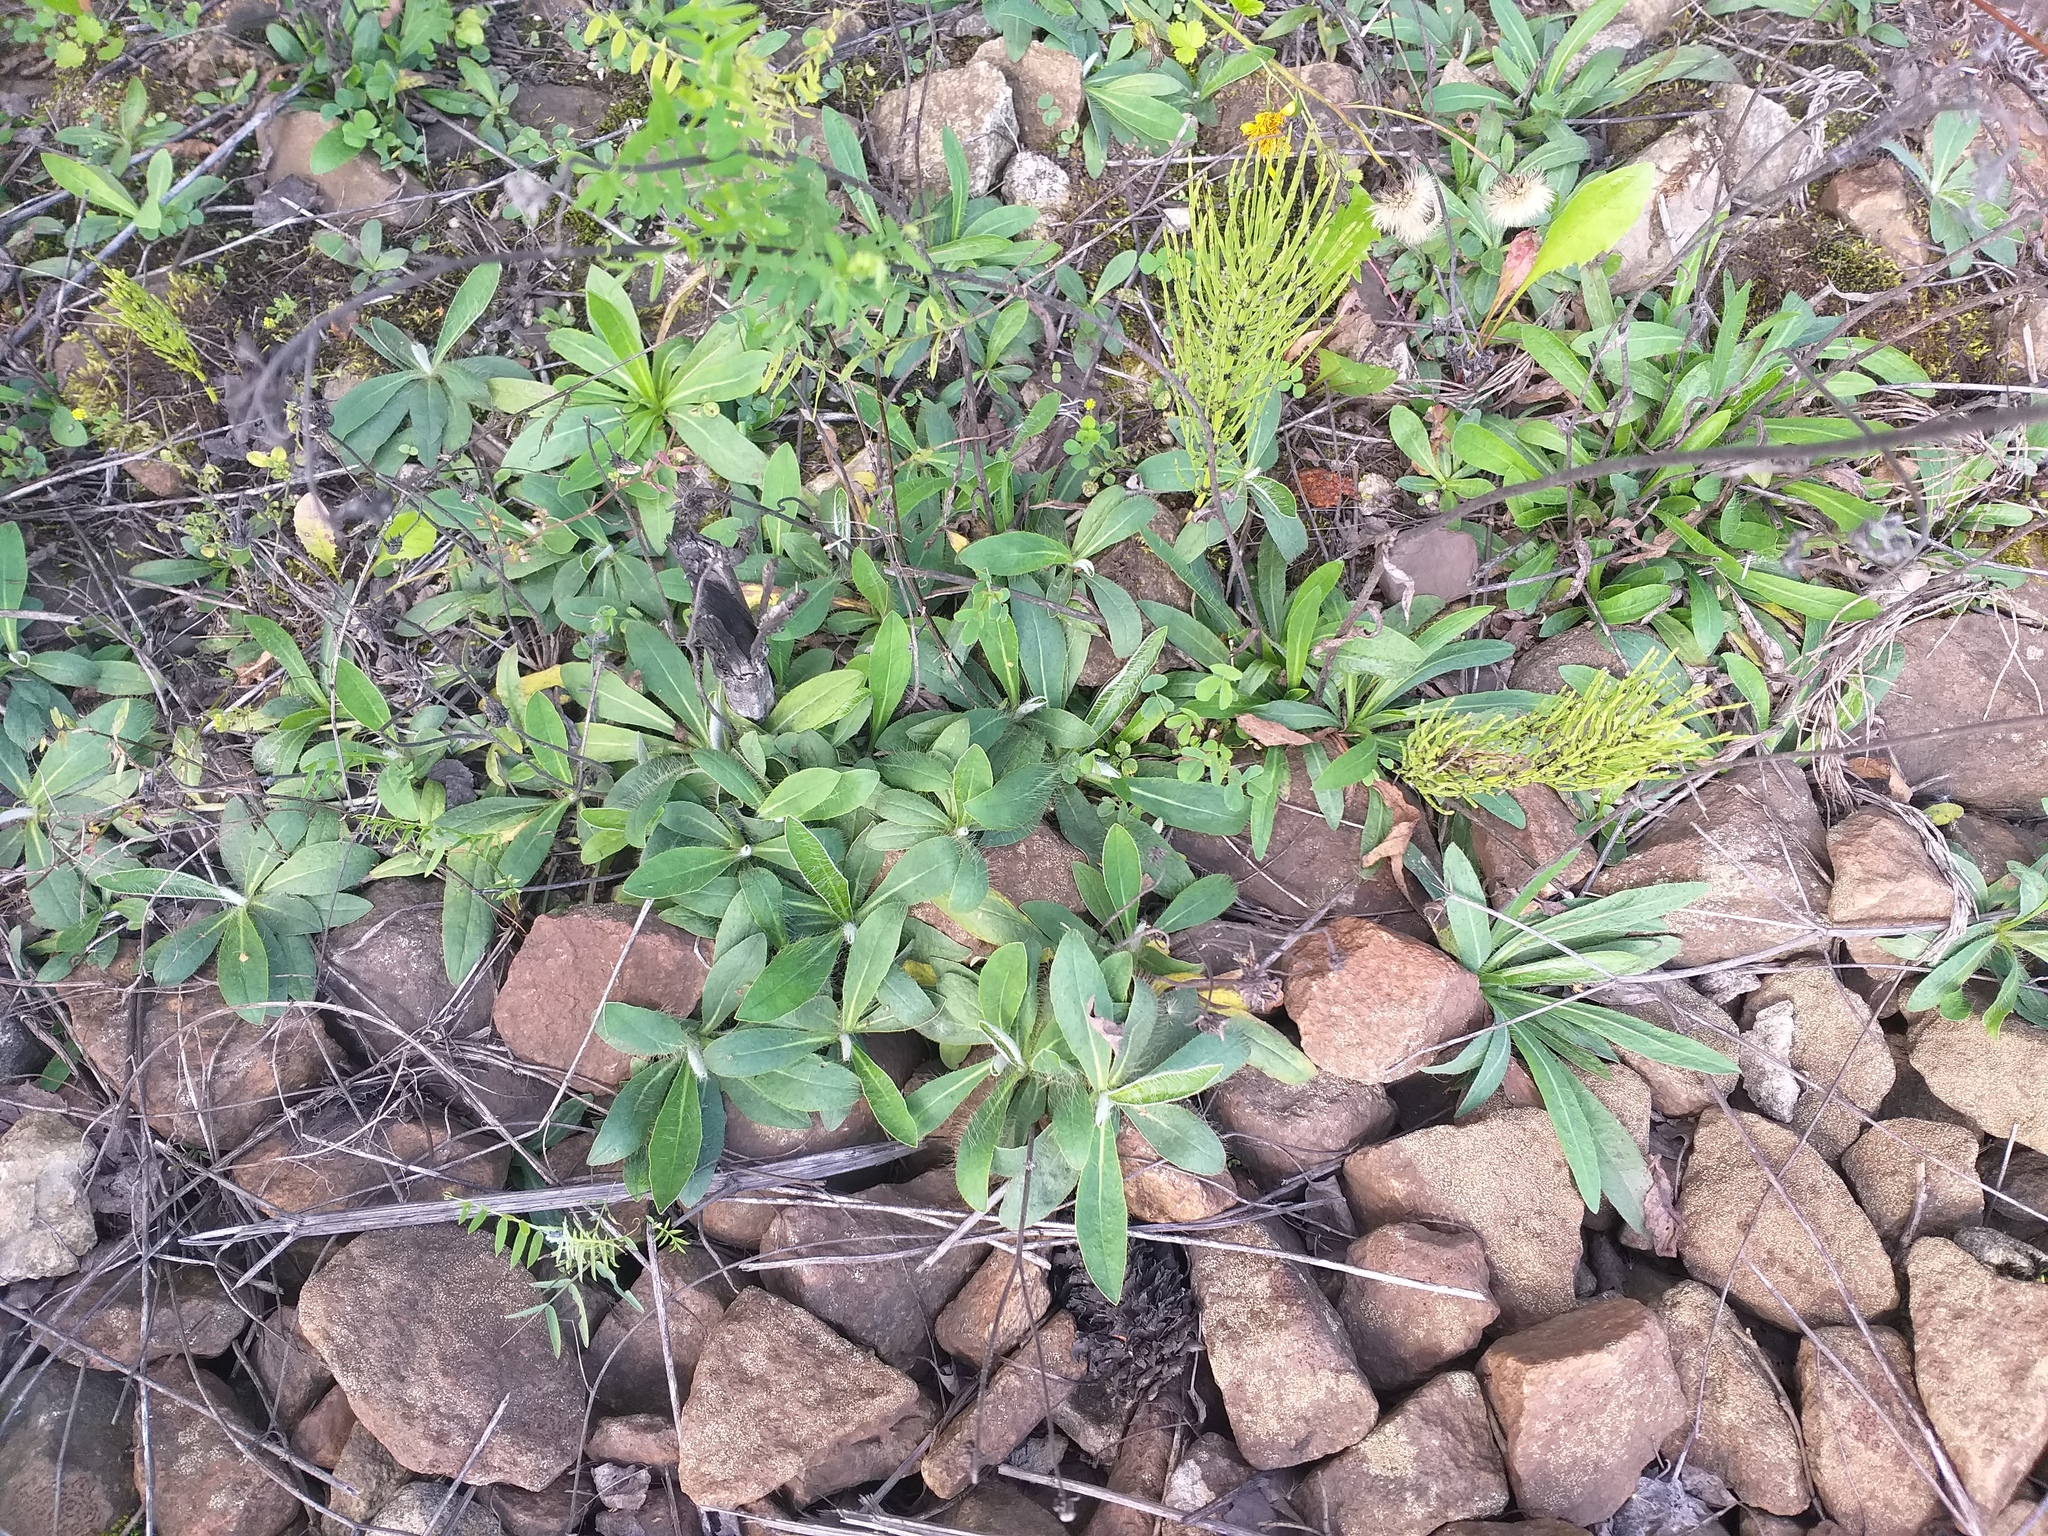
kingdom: Plantae
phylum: Tracheophyta
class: Magnoliopsida
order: Asterales
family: Asteraceae
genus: Pilosella
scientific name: Pilosella
